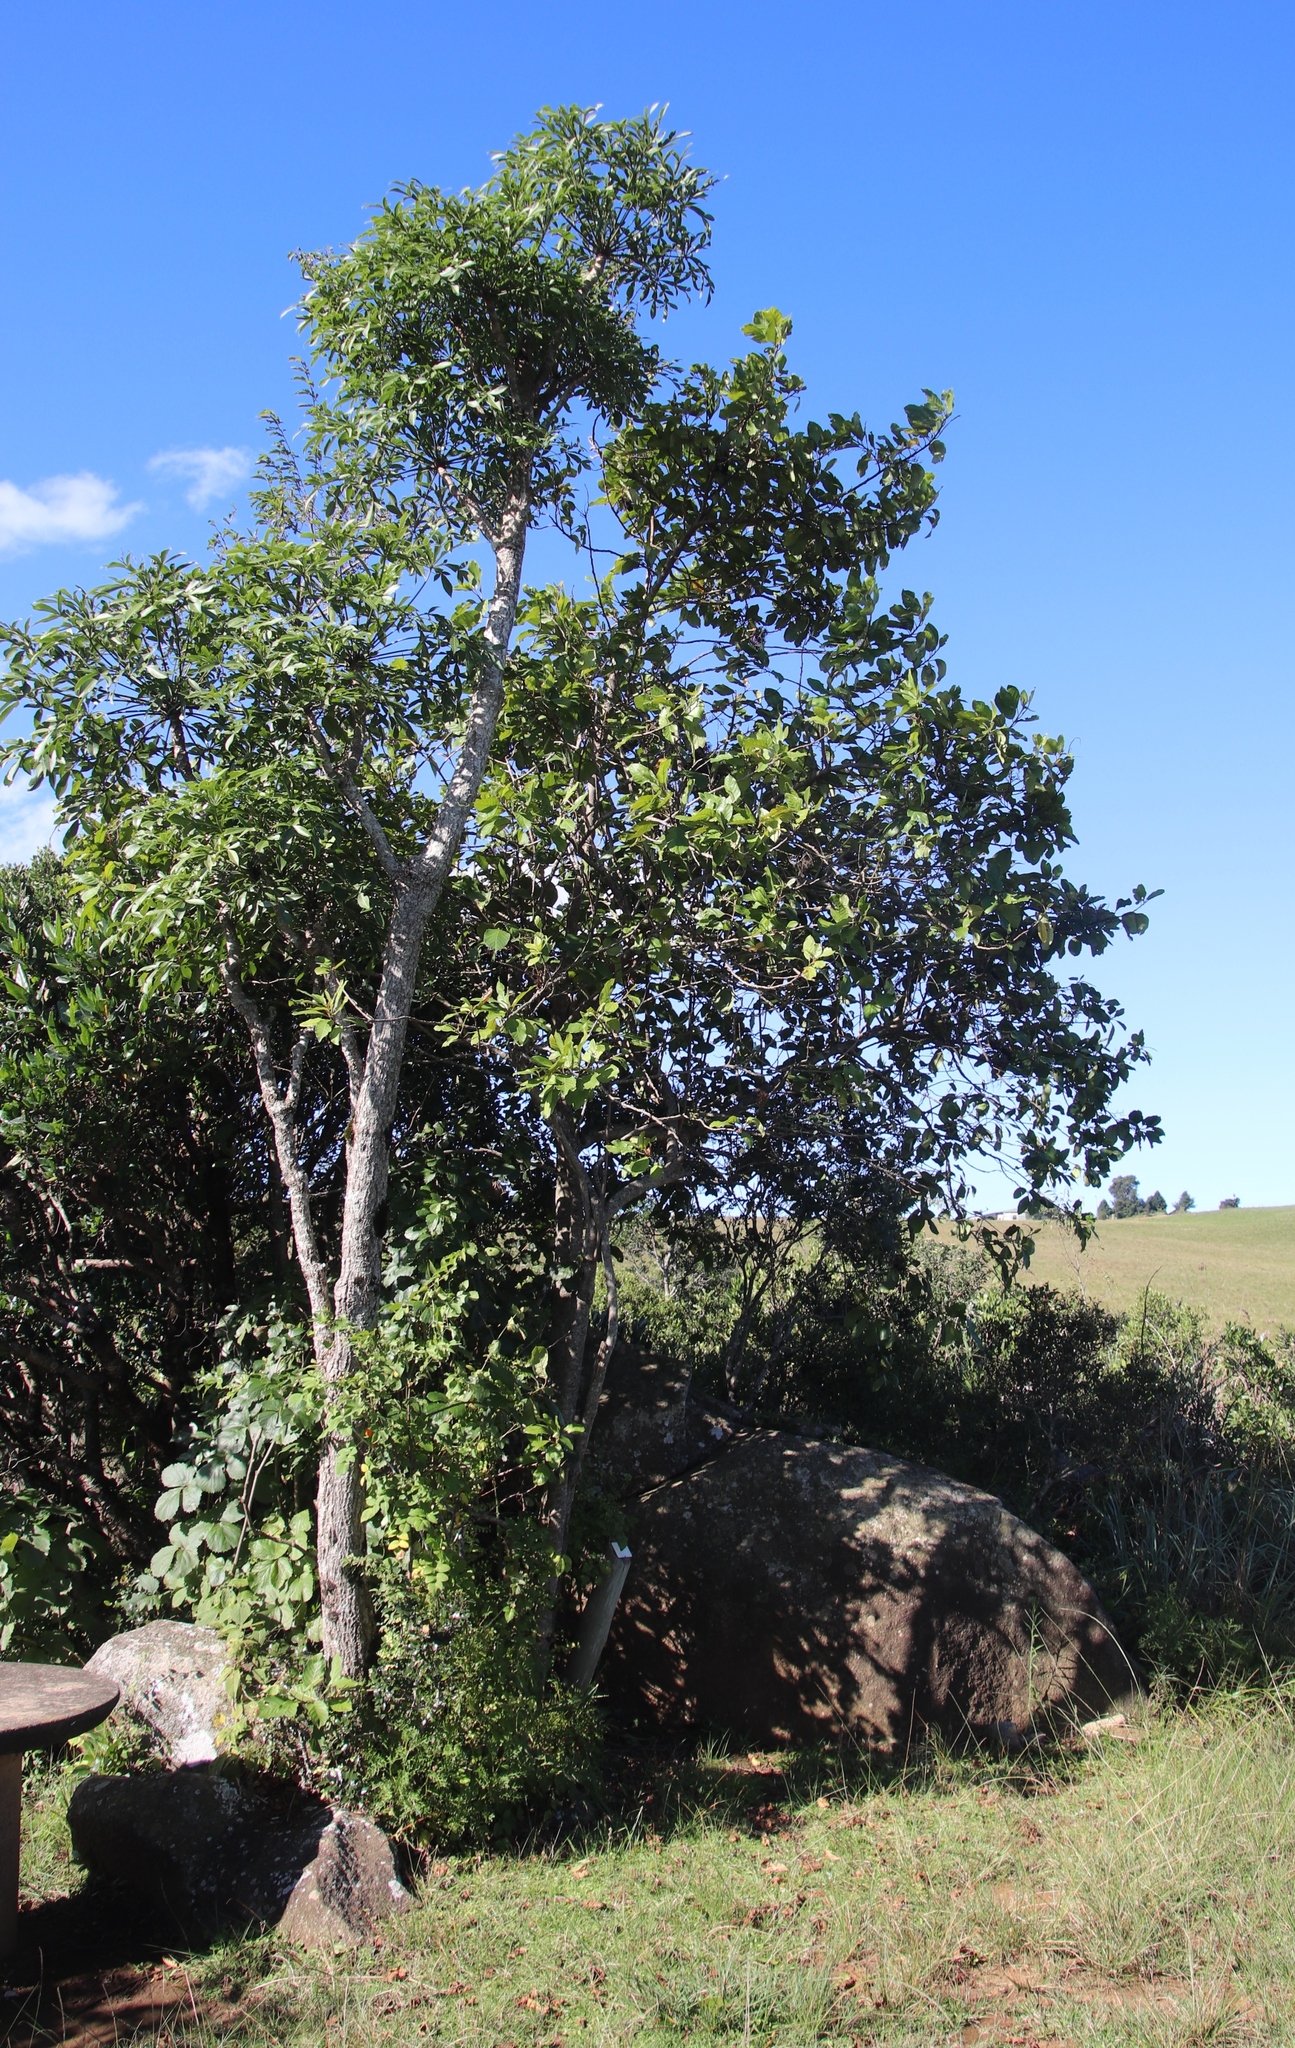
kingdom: Plantae
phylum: Tracheophyta
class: Magnoliopsida
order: Ericales
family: Primulaceae
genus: Maesa
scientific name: Maesa lanceolata
